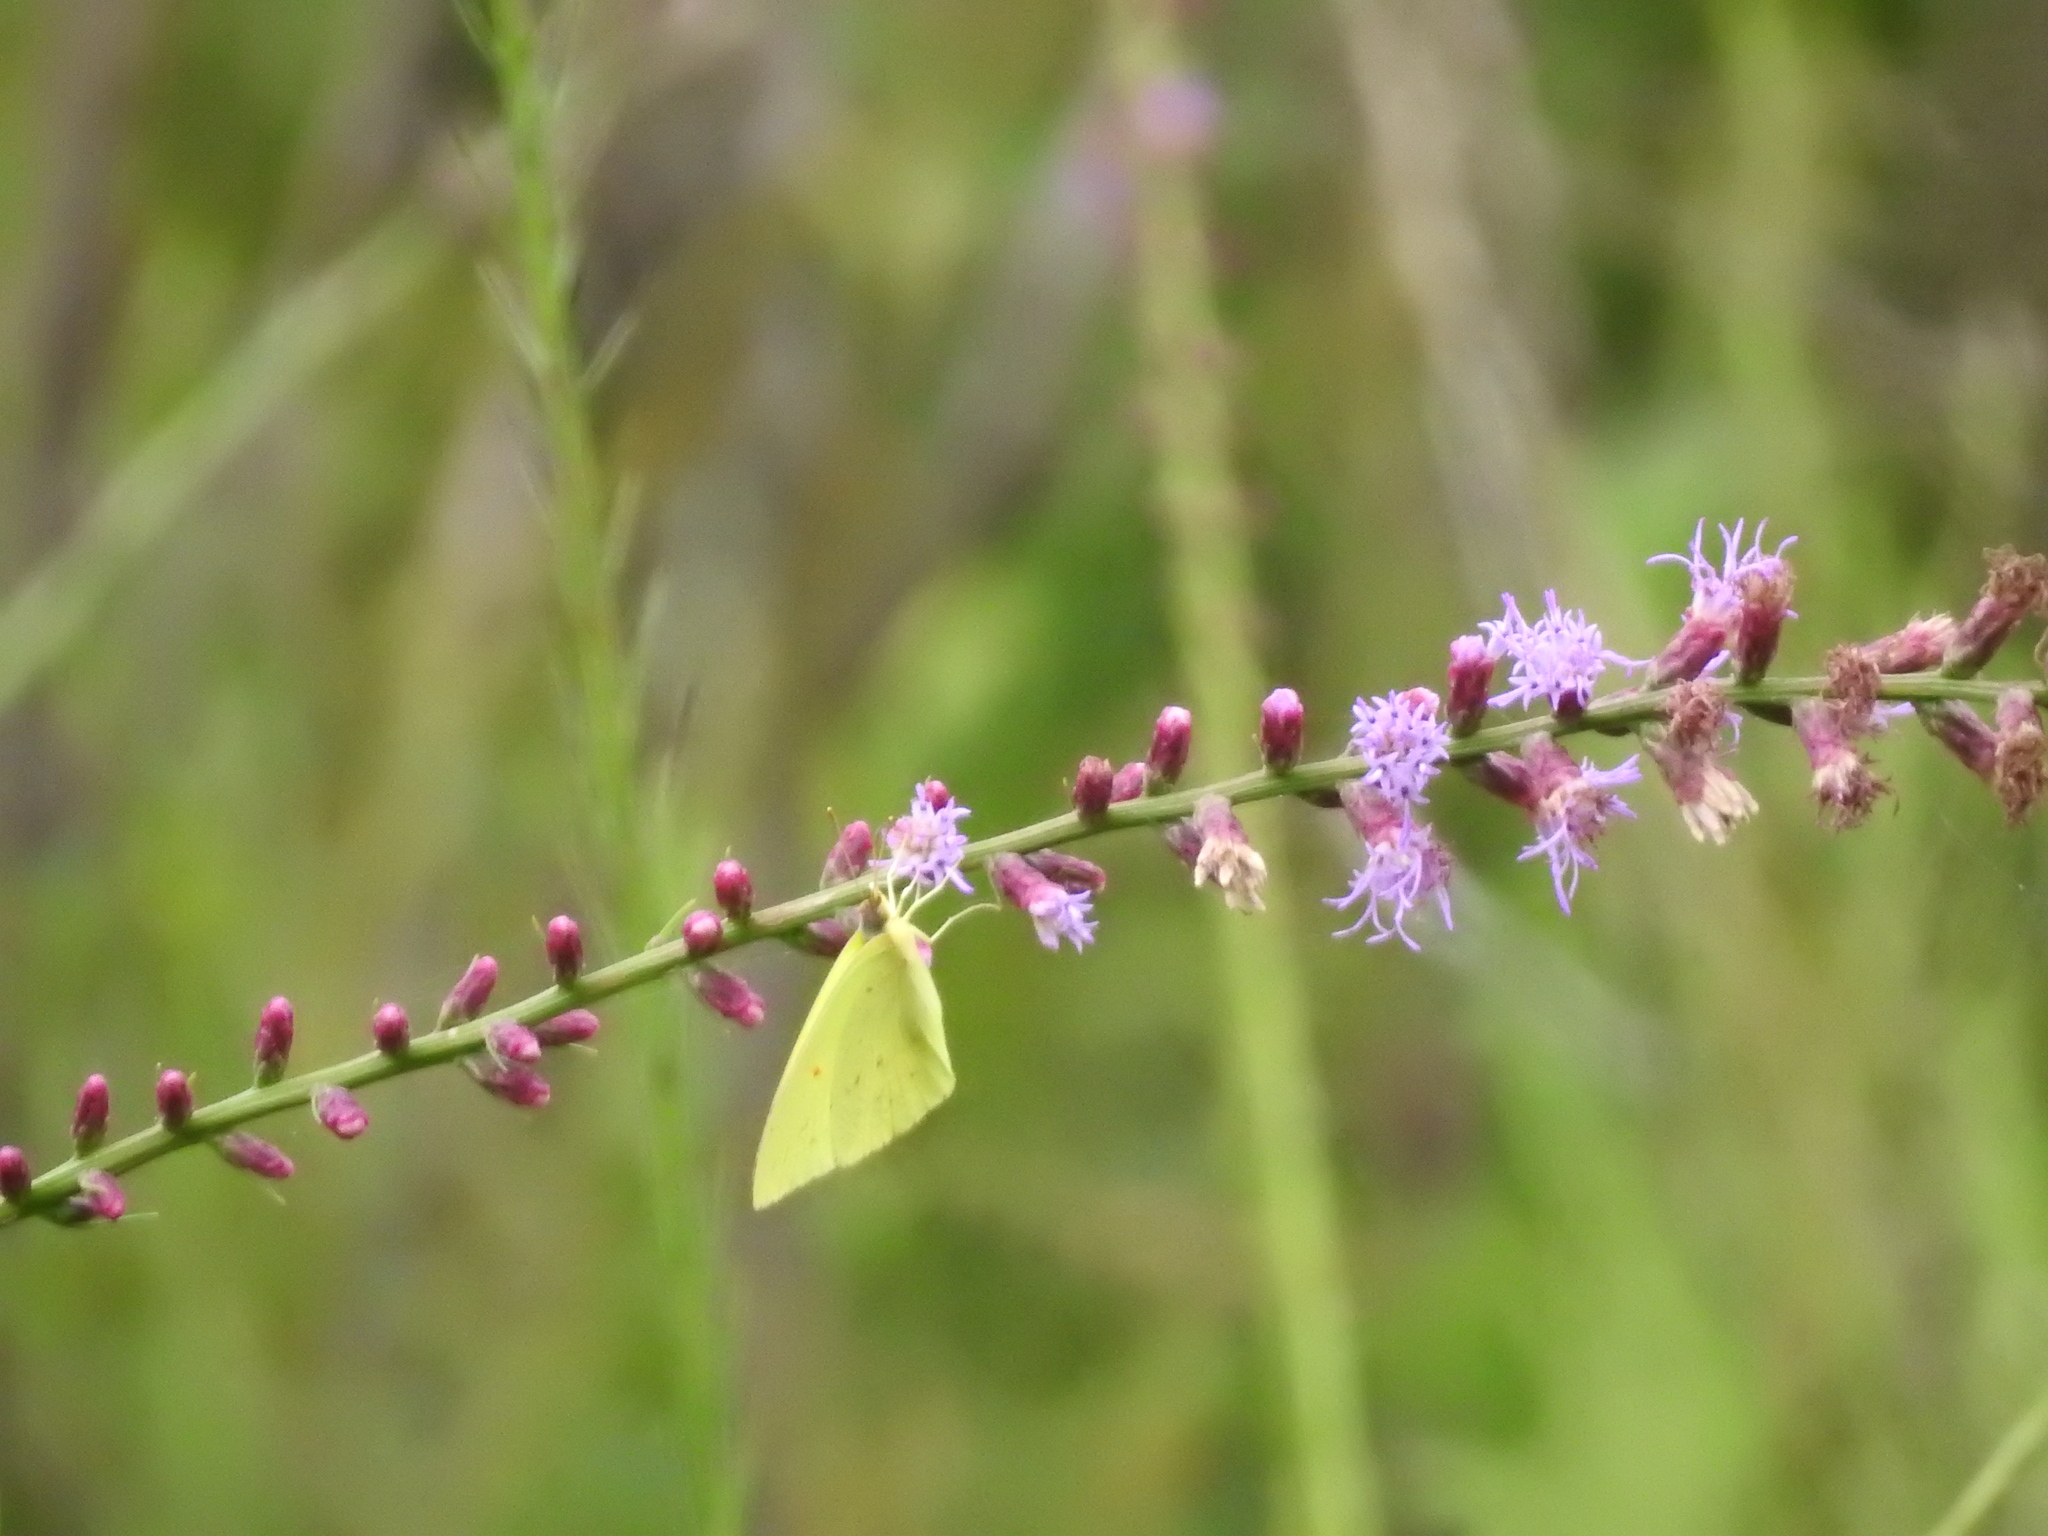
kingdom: Animalia
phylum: Arthropoda
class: Insecta
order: Lepidoptera
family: Pieridae
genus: Phoebis
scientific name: Phoebis sennae
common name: Cloudless sulphur
